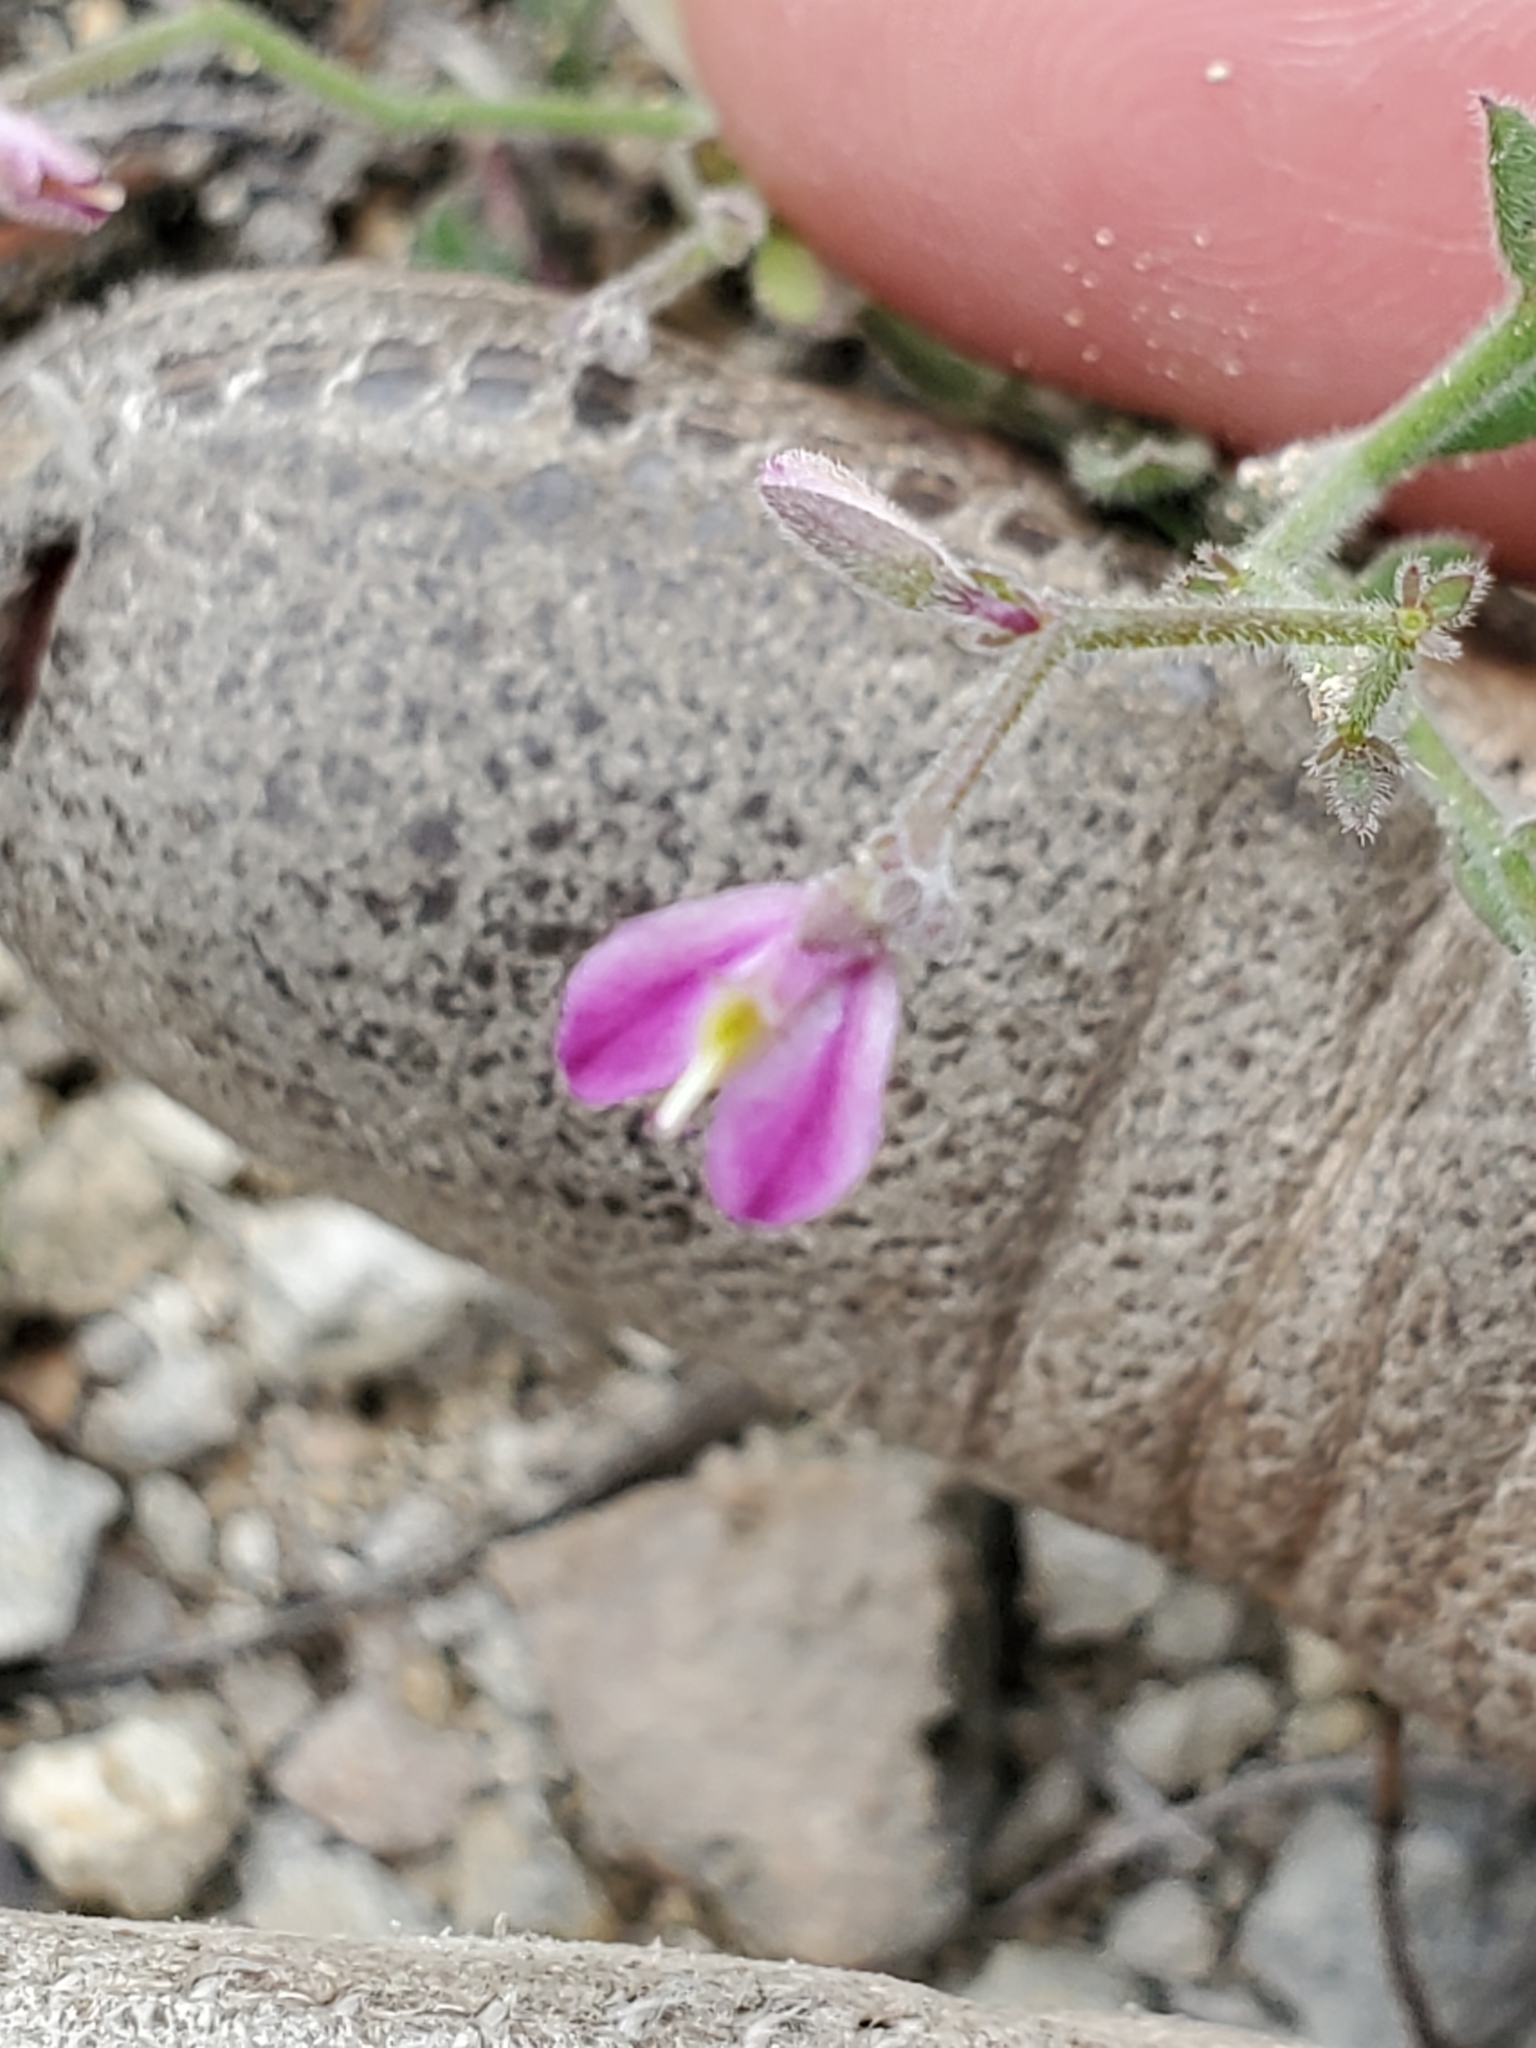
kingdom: Plantae
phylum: Tracheophyta
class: Magnoliopsida
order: Fabales
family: Polygalaceae
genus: Rhinotropis
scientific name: Rhinotropis lindheimeri
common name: Shrubby milkwort
